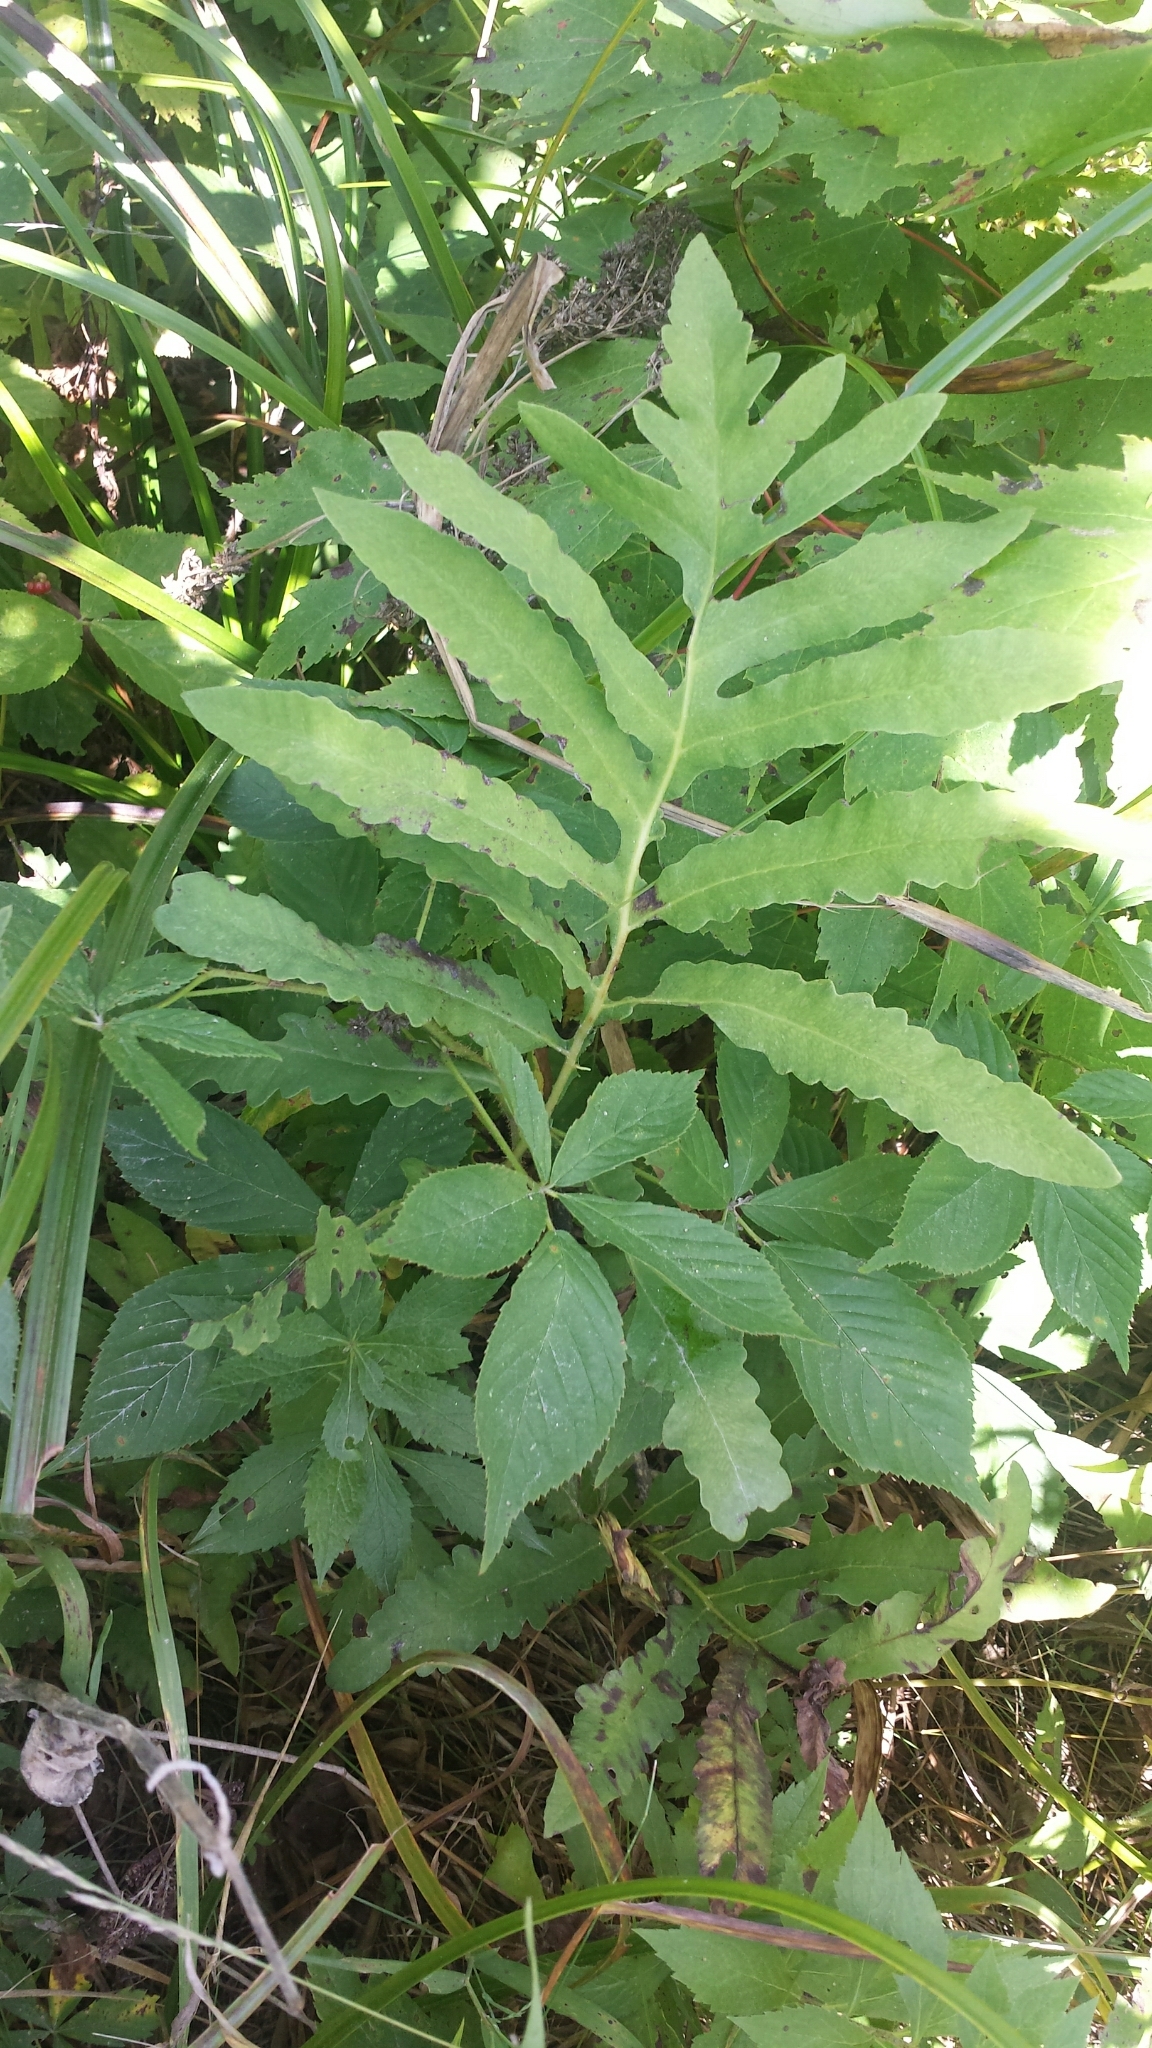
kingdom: Plantae
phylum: Tracheophyta
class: Polypodiopsida
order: Polypodiales
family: Onocleaceae
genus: Onoclea
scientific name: Onoclea sensibilis
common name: Sensitive fern
